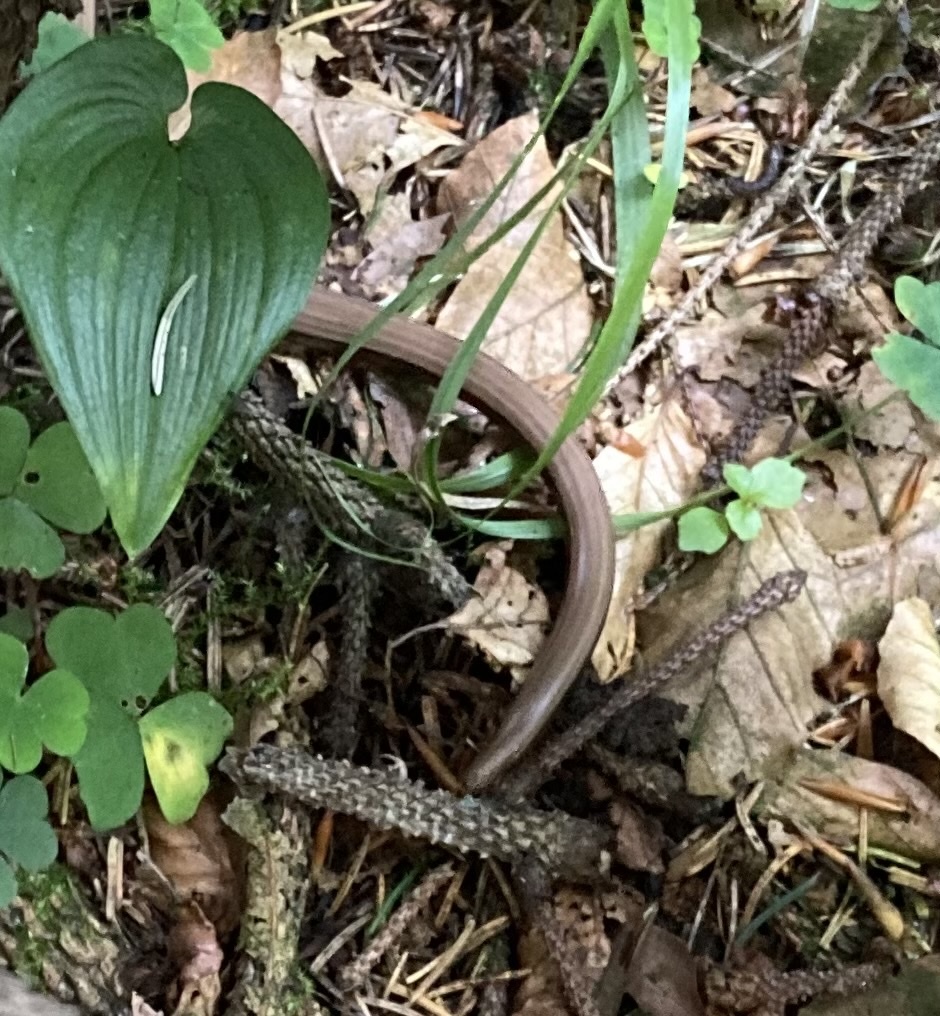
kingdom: Animalia
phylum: Chordata
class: Squamata
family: Anguidae
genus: Anguis
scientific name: Anguis fragilis
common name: Slow worm
